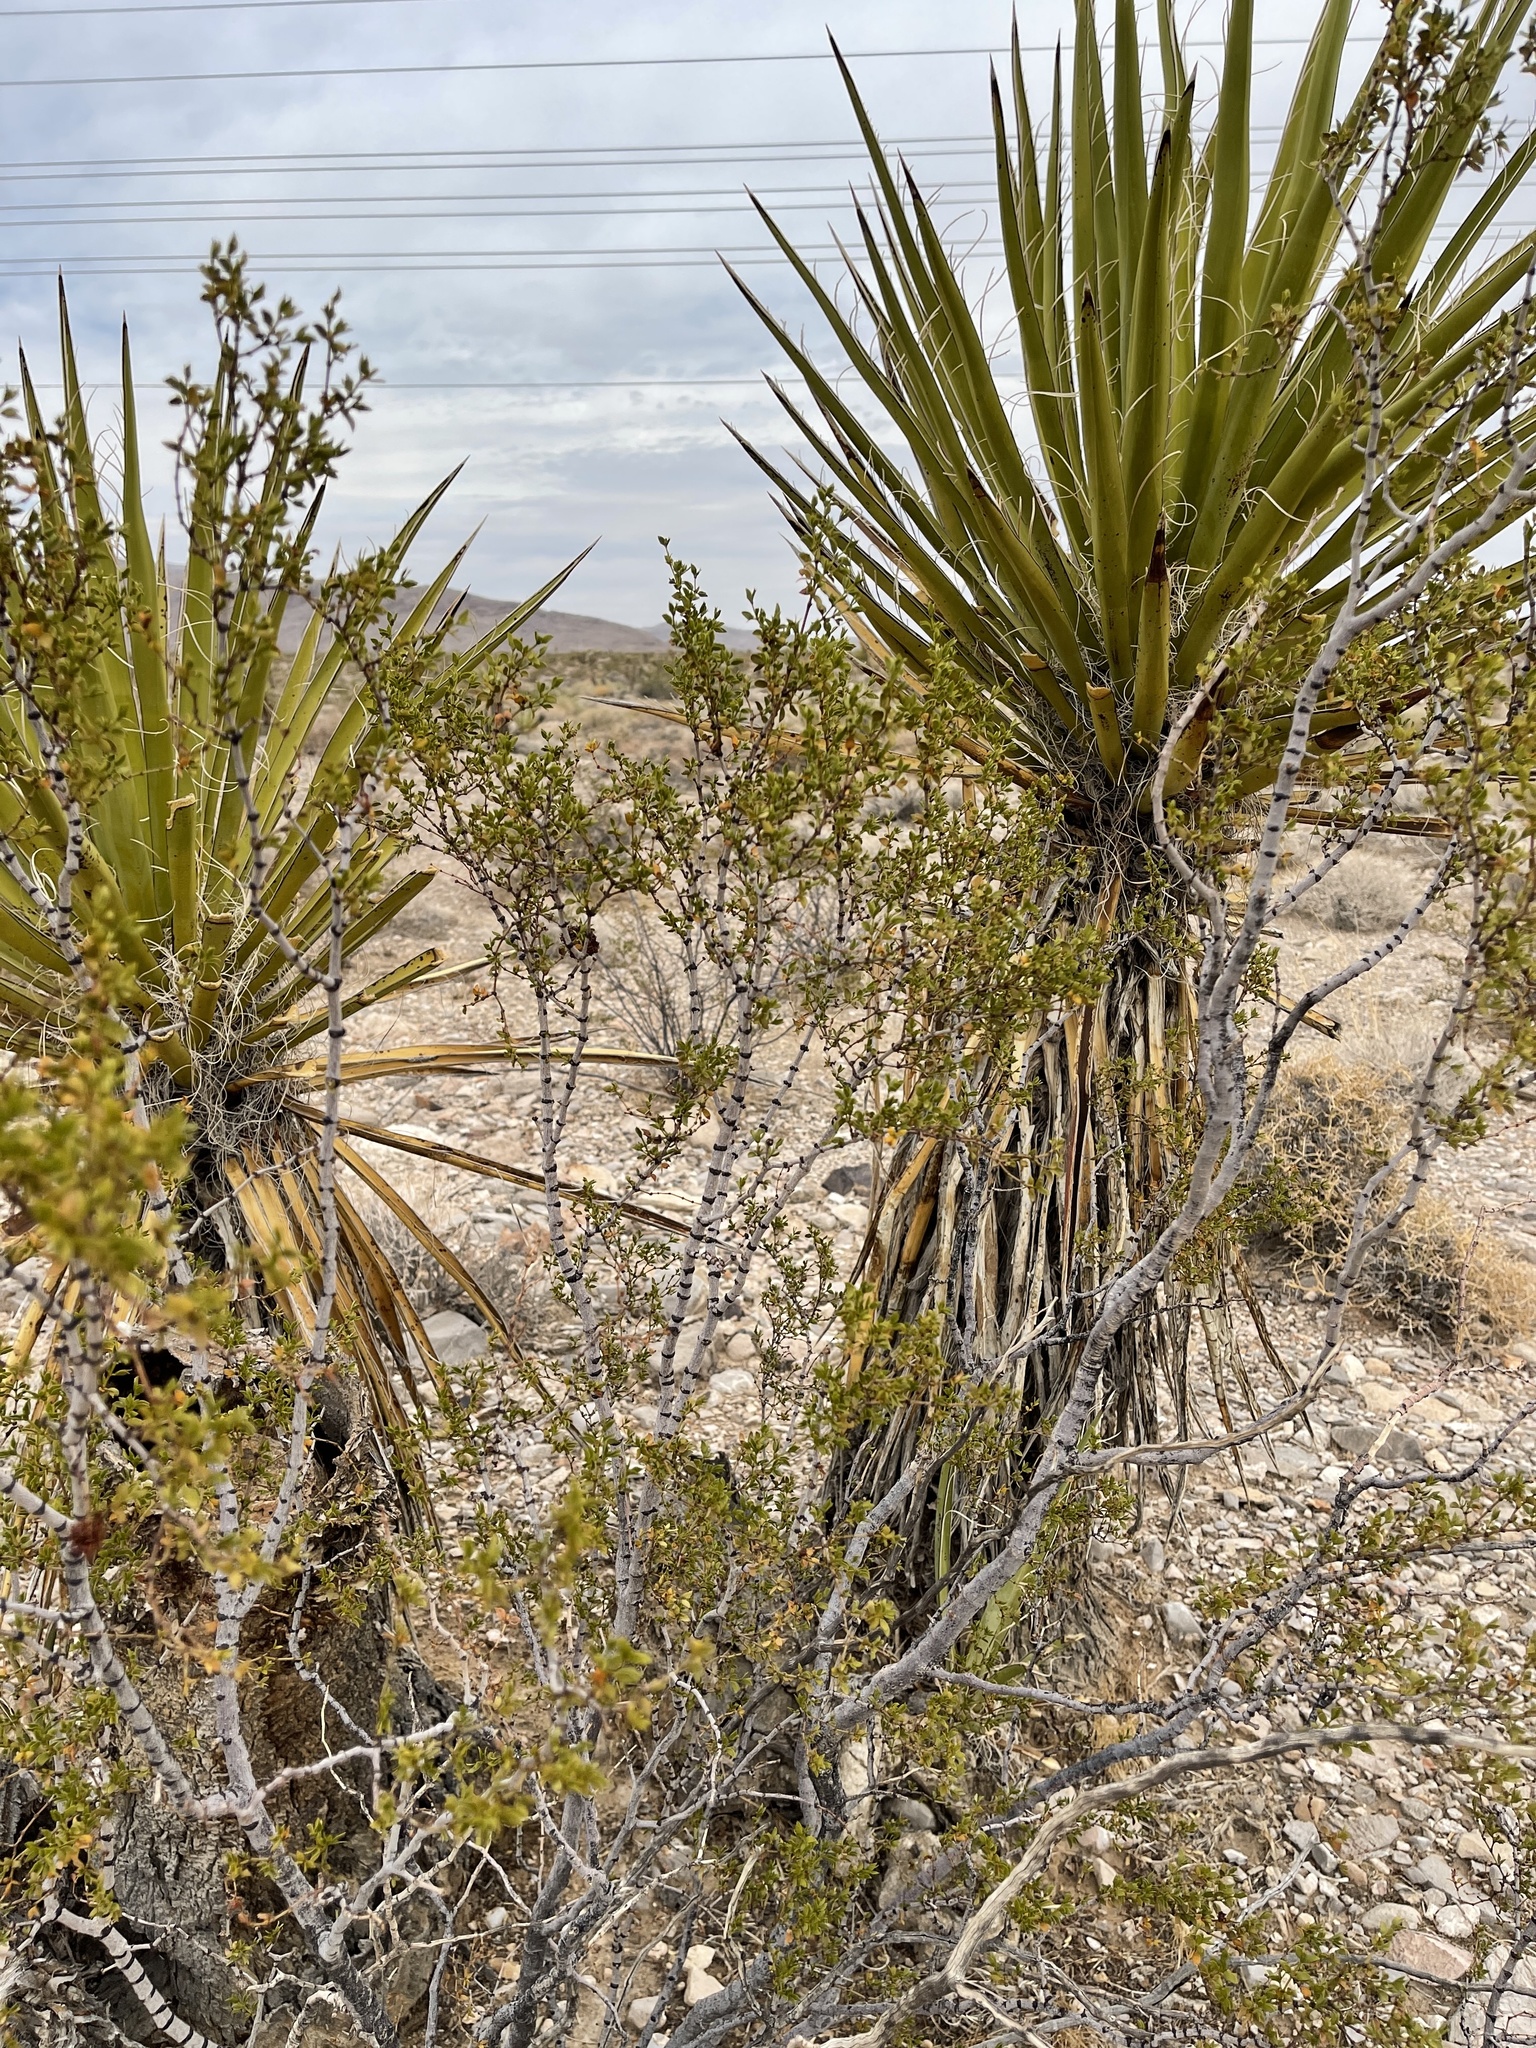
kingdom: Plantae
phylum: Tracheophyta
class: Magnoliopsida
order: Zygophyllales
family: Zygophyllaceae
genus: Larrea
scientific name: Larrea tridentata
